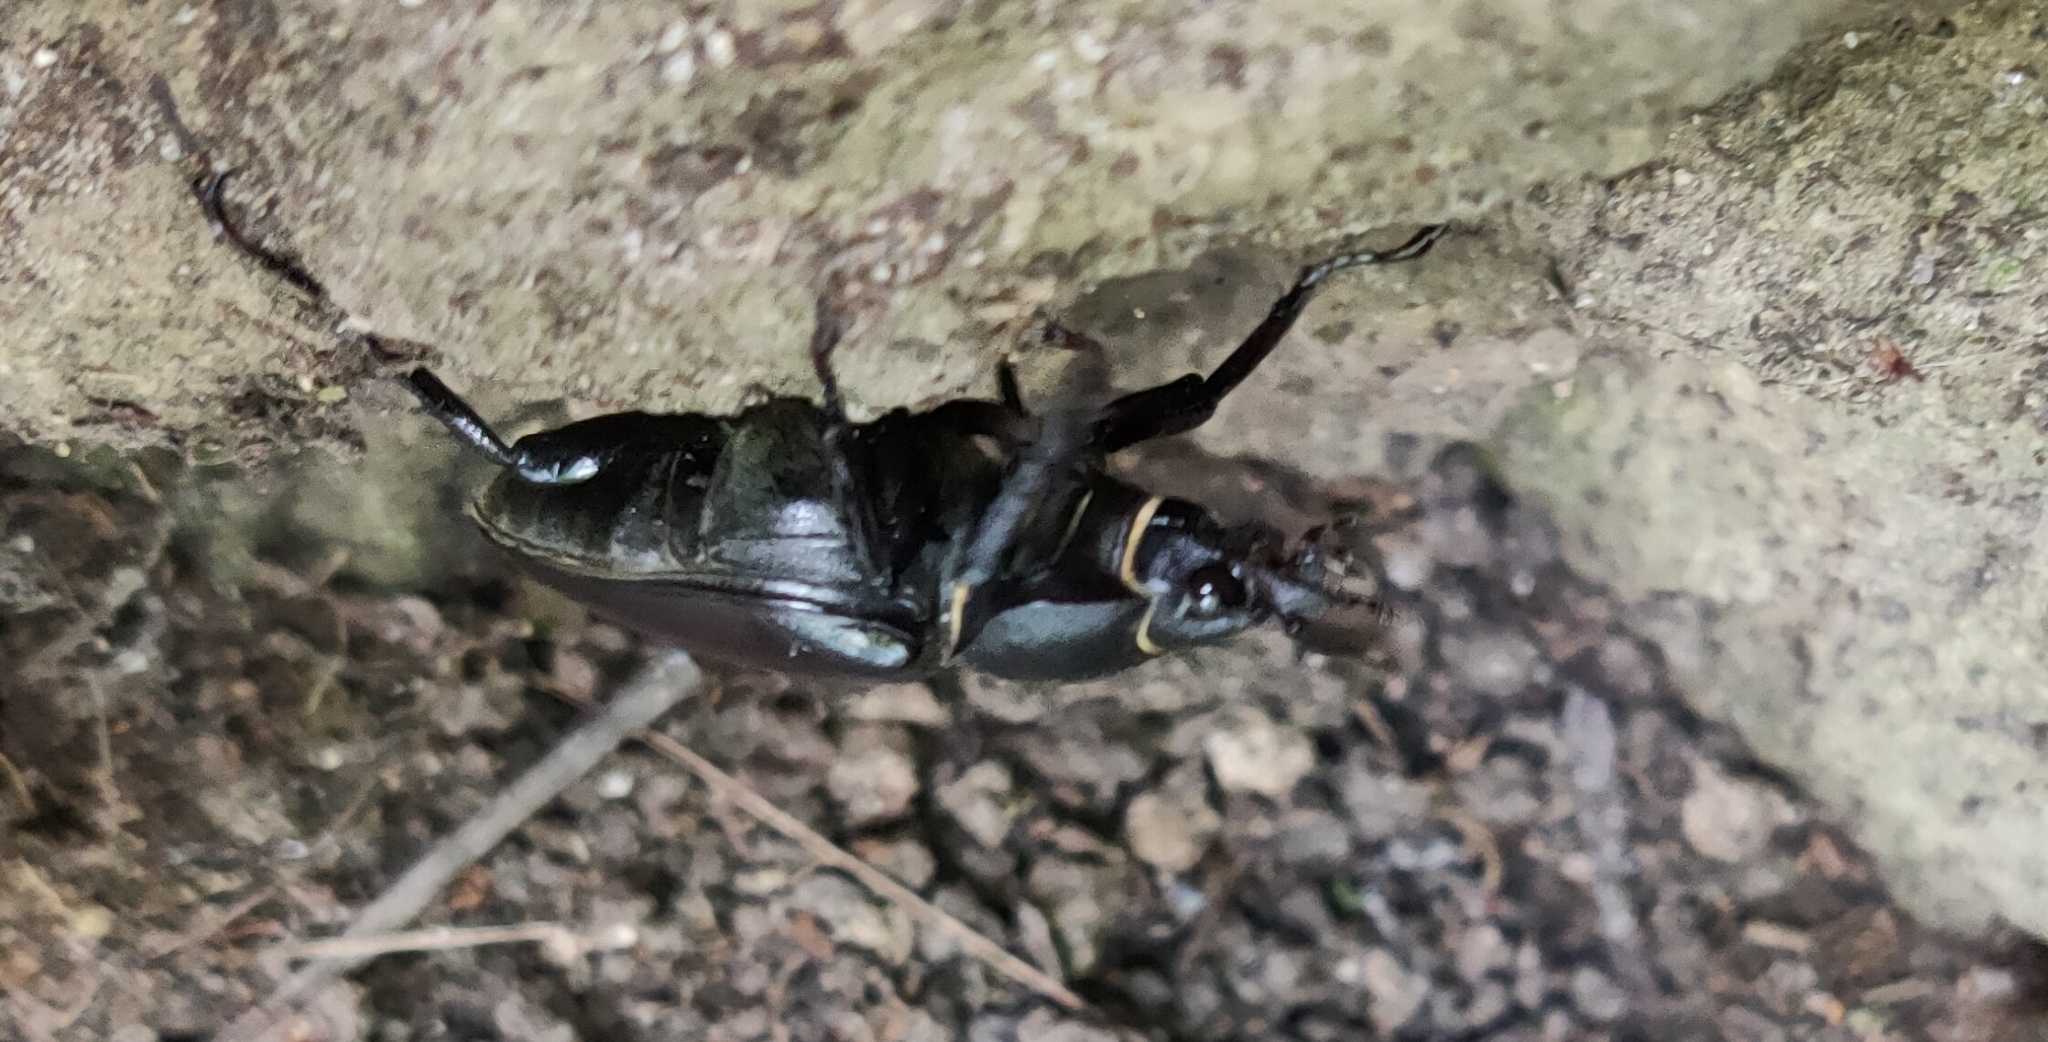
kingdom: Animalia
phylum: Arthropoda
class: Insecta
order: Coleoptera
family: Lucanidae
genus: Lucanus
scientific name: Lucanus cervus
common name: Stag beetle
